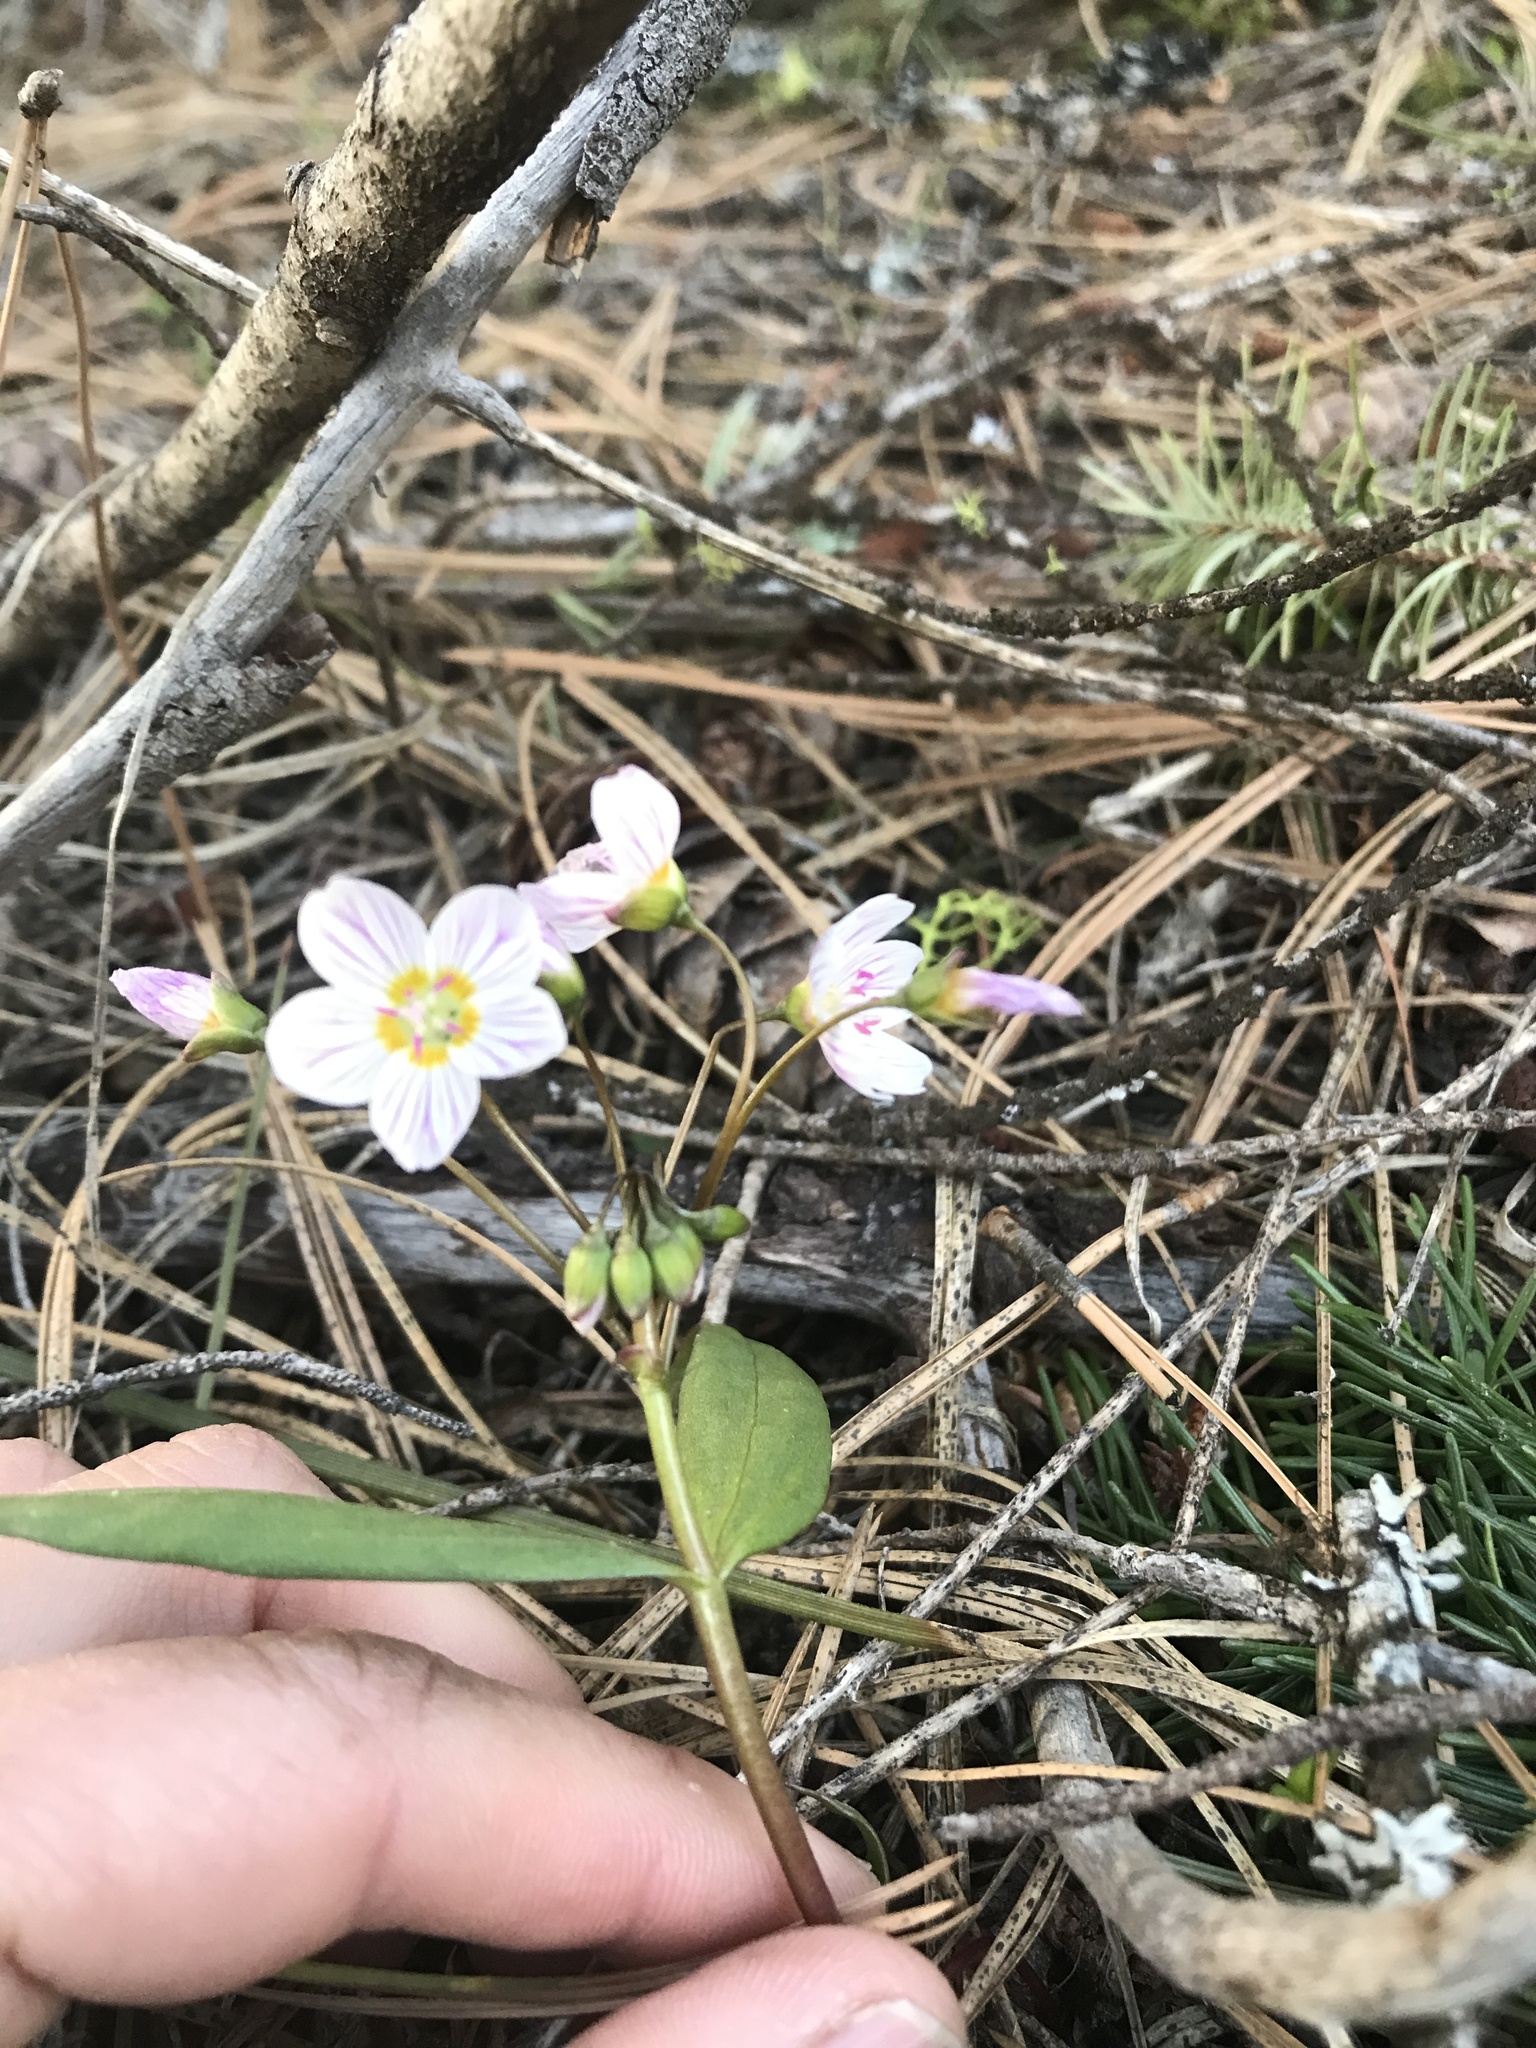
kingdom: Plantae
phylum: Tracheophyta
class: Magnoliopsida
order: Caryophyllales
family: Montiaceae
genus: Claytonia
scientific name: Claytonia lanceolata
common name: Western spring-beauty
